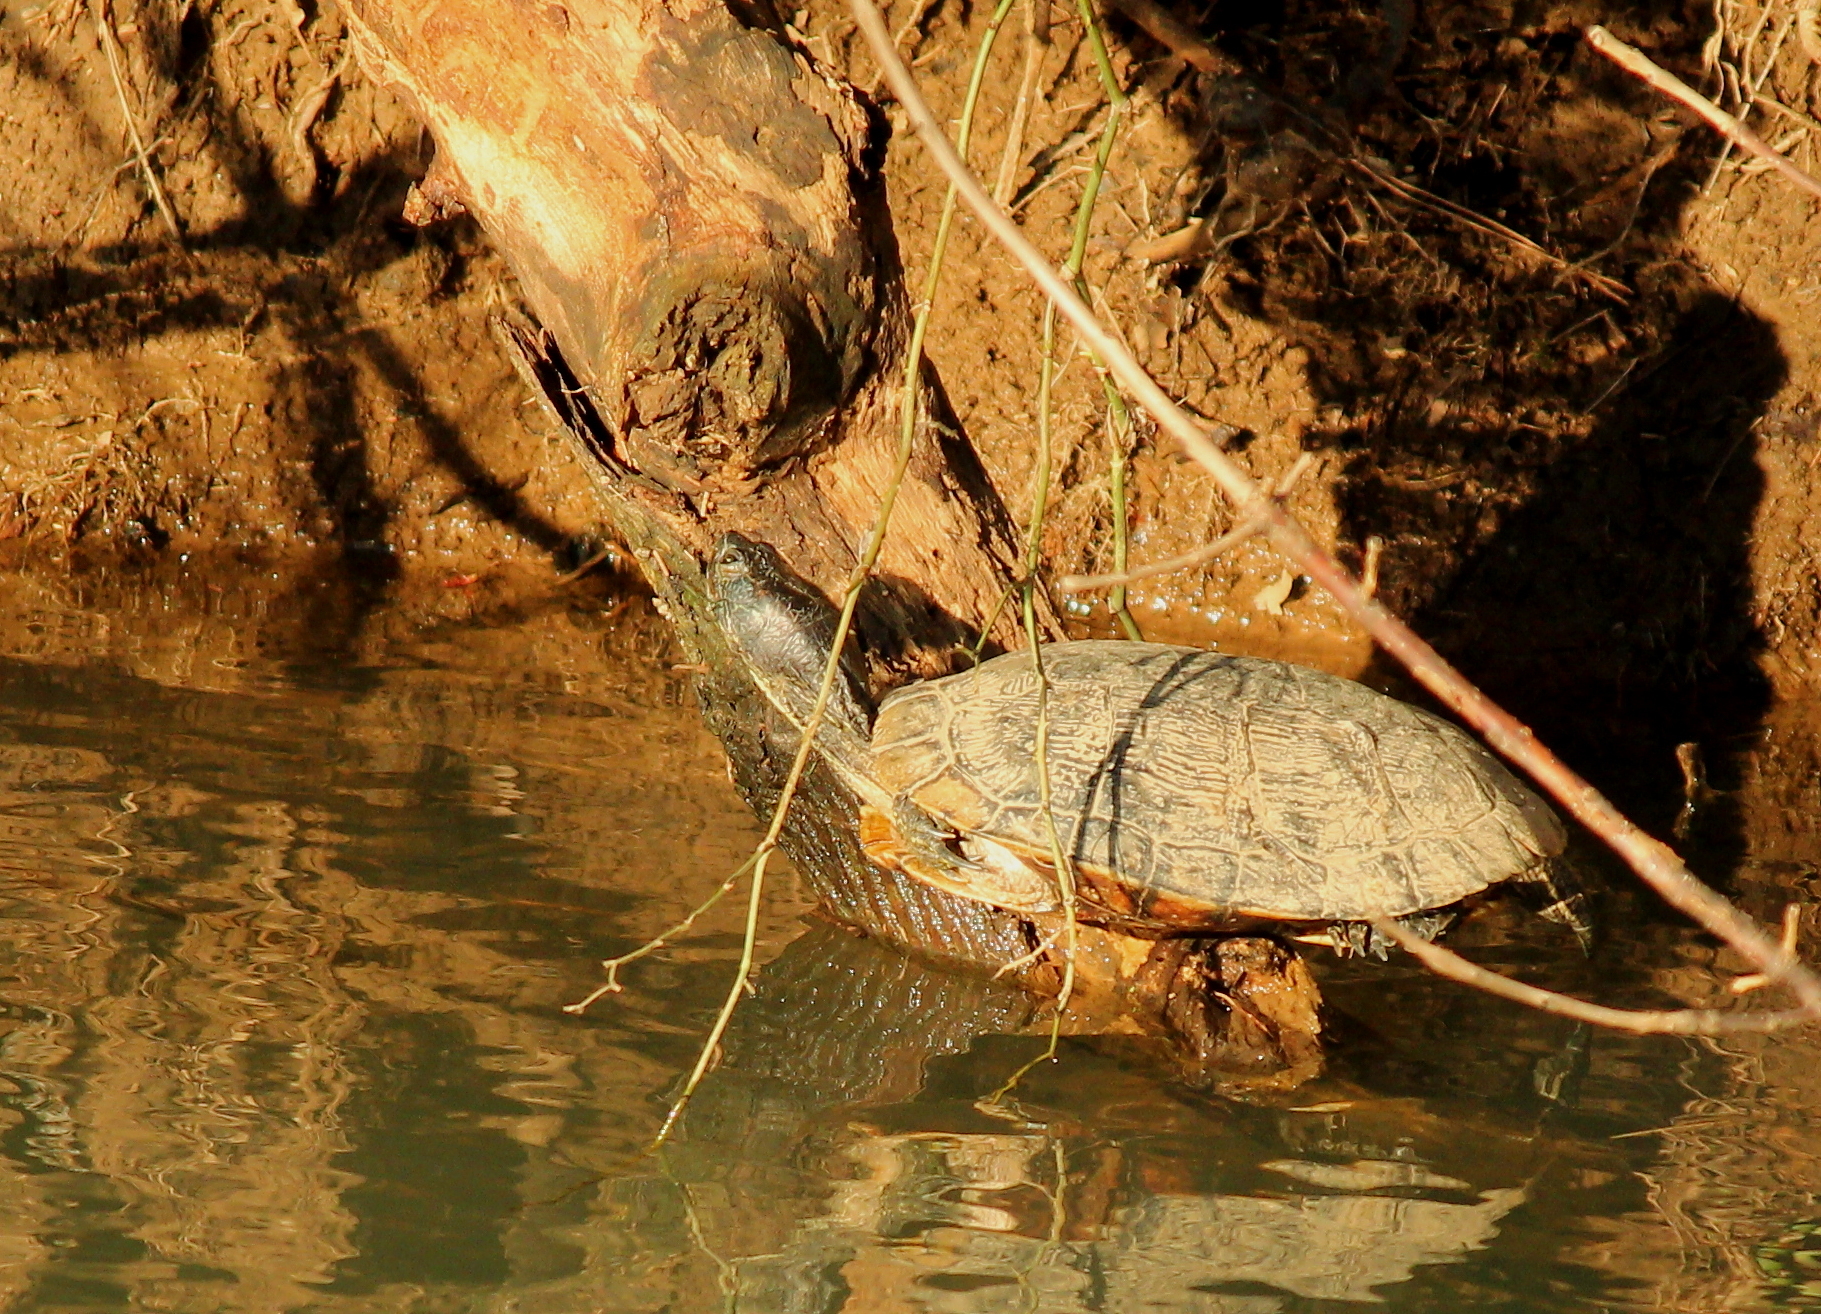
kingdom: Animalia
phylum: Chordata
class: Testudines
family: Emydidae
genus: Trachemys
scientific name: Trachemys scripta
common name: Slider
